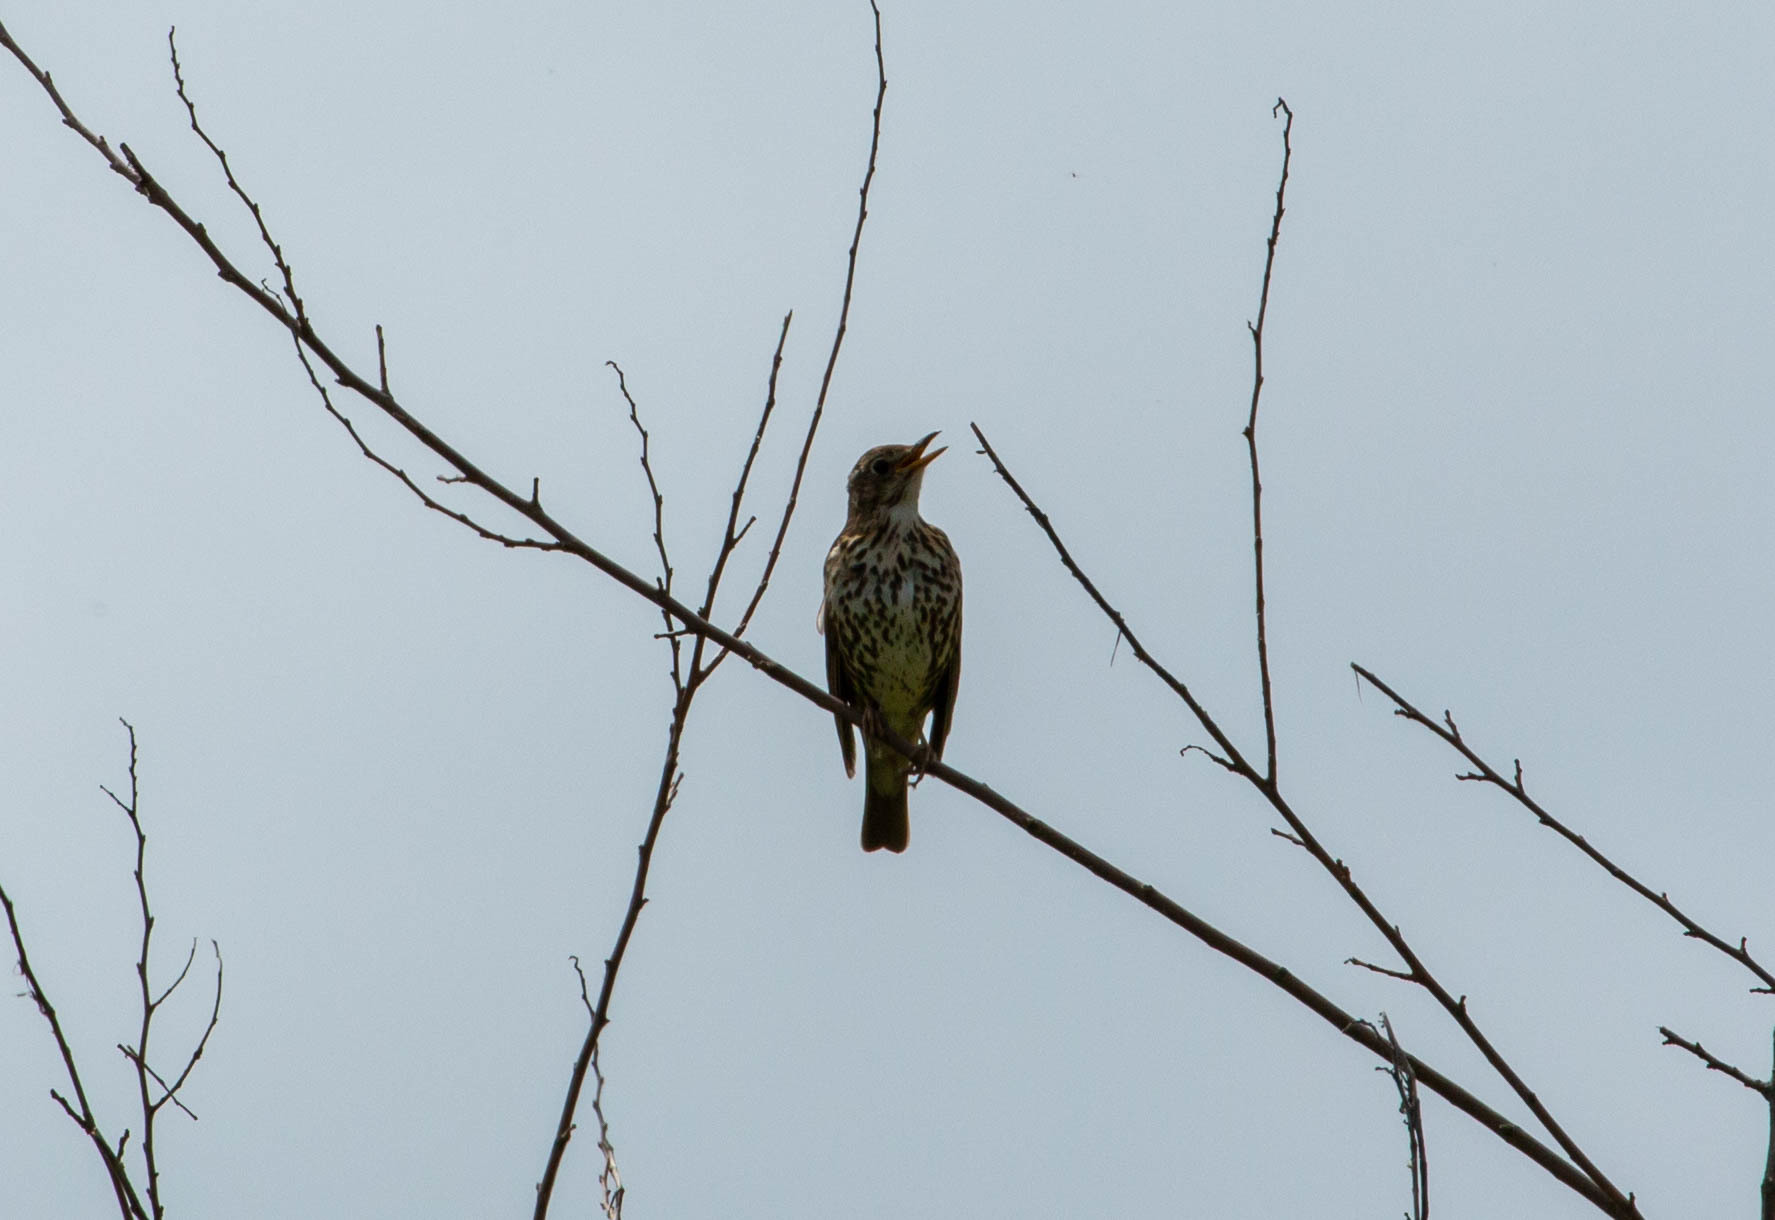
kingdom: Animalia
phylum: Chordata
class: Aves
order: Passeriformes
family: Turdidae
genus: Turdus
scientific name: Turdus philomelos
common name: Song thrush
